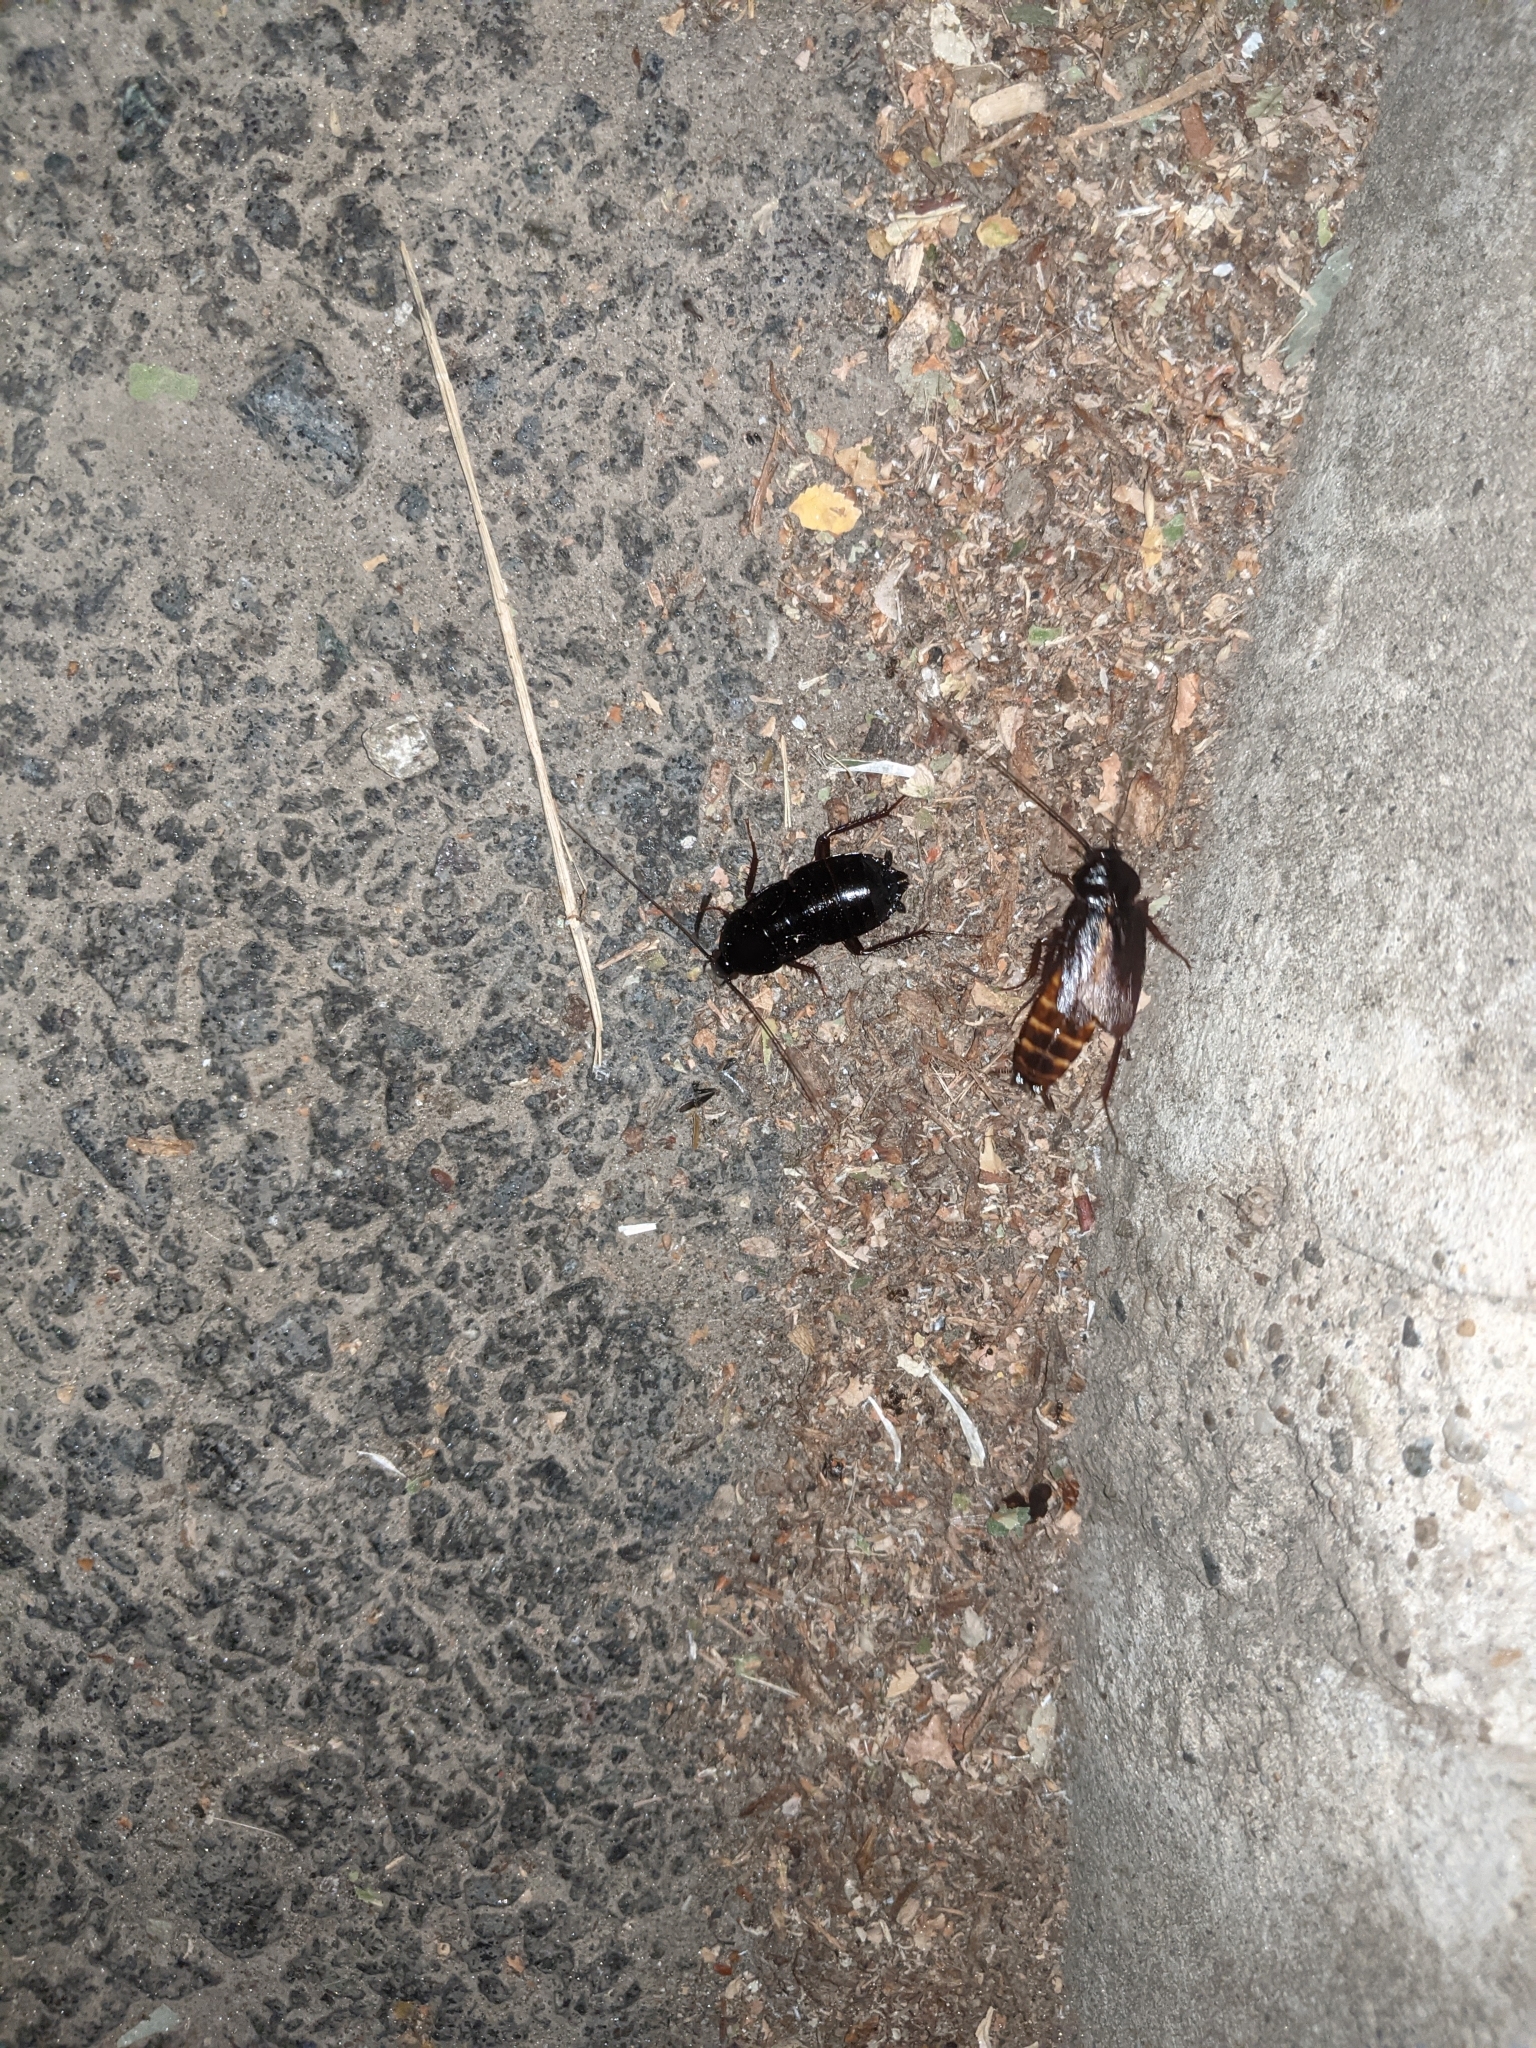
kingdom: Animalia
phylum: Arthropoda
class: Insecta
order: Blattodea
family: Blattidae
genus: Blatta
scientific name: Blatta orientalis
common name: Oriental cockroach
